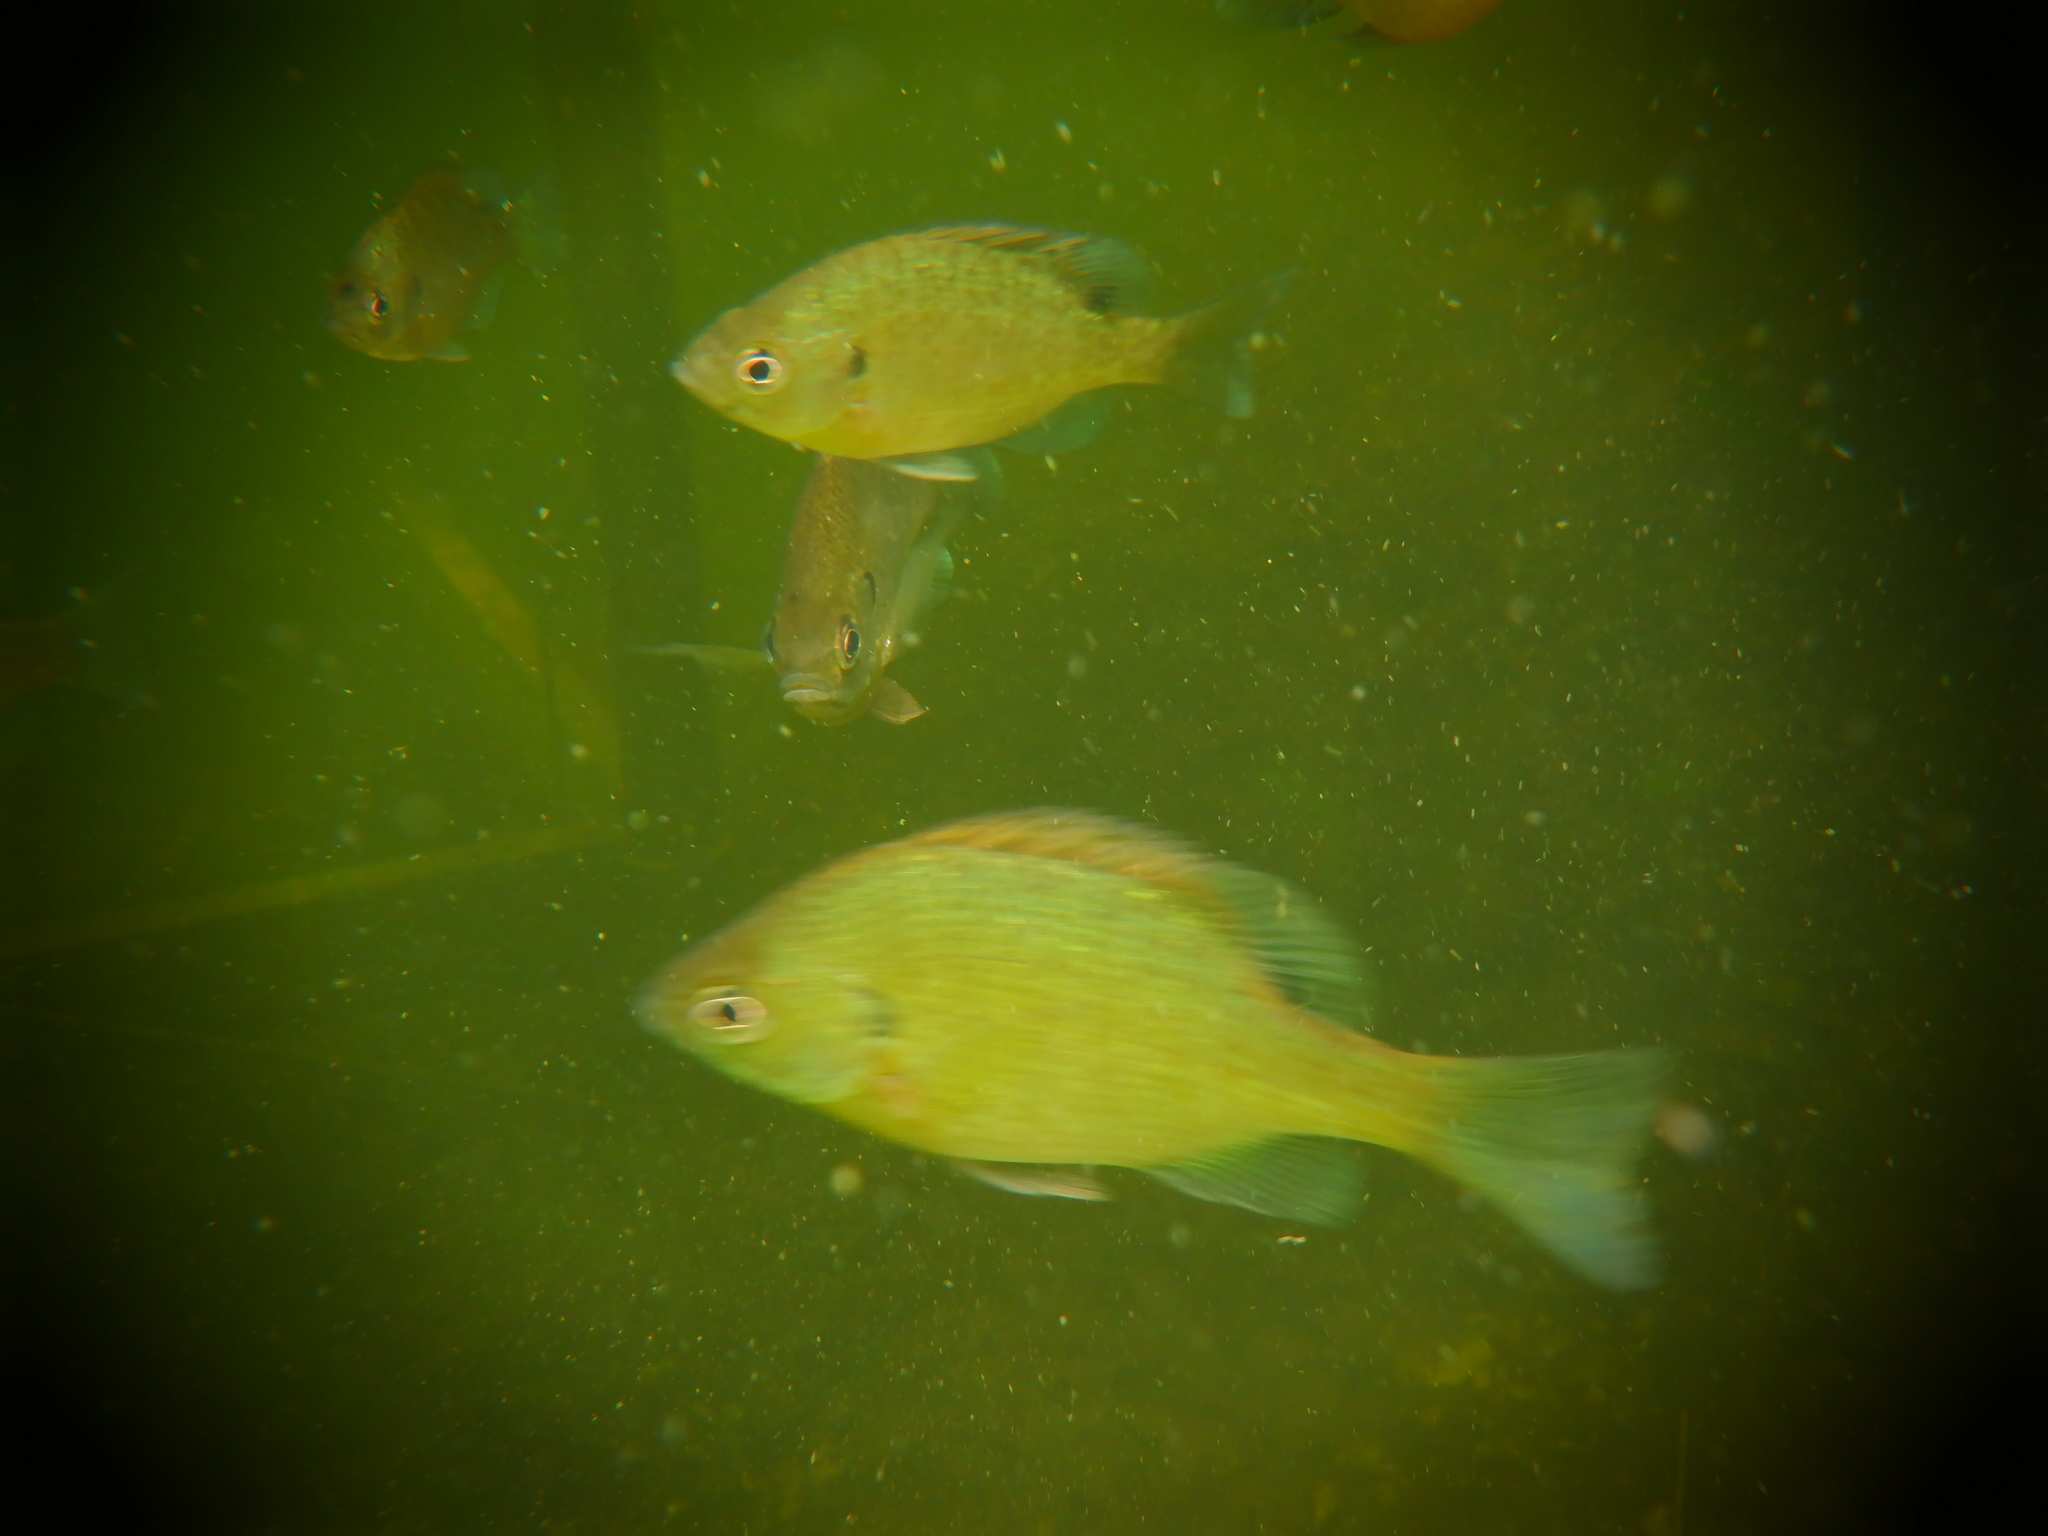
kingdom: Animalia
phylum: Chordata
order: Perciformes
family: Centrarchidae
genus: Lepomis
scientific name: Lepomis macrochirus
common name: Bluegill
